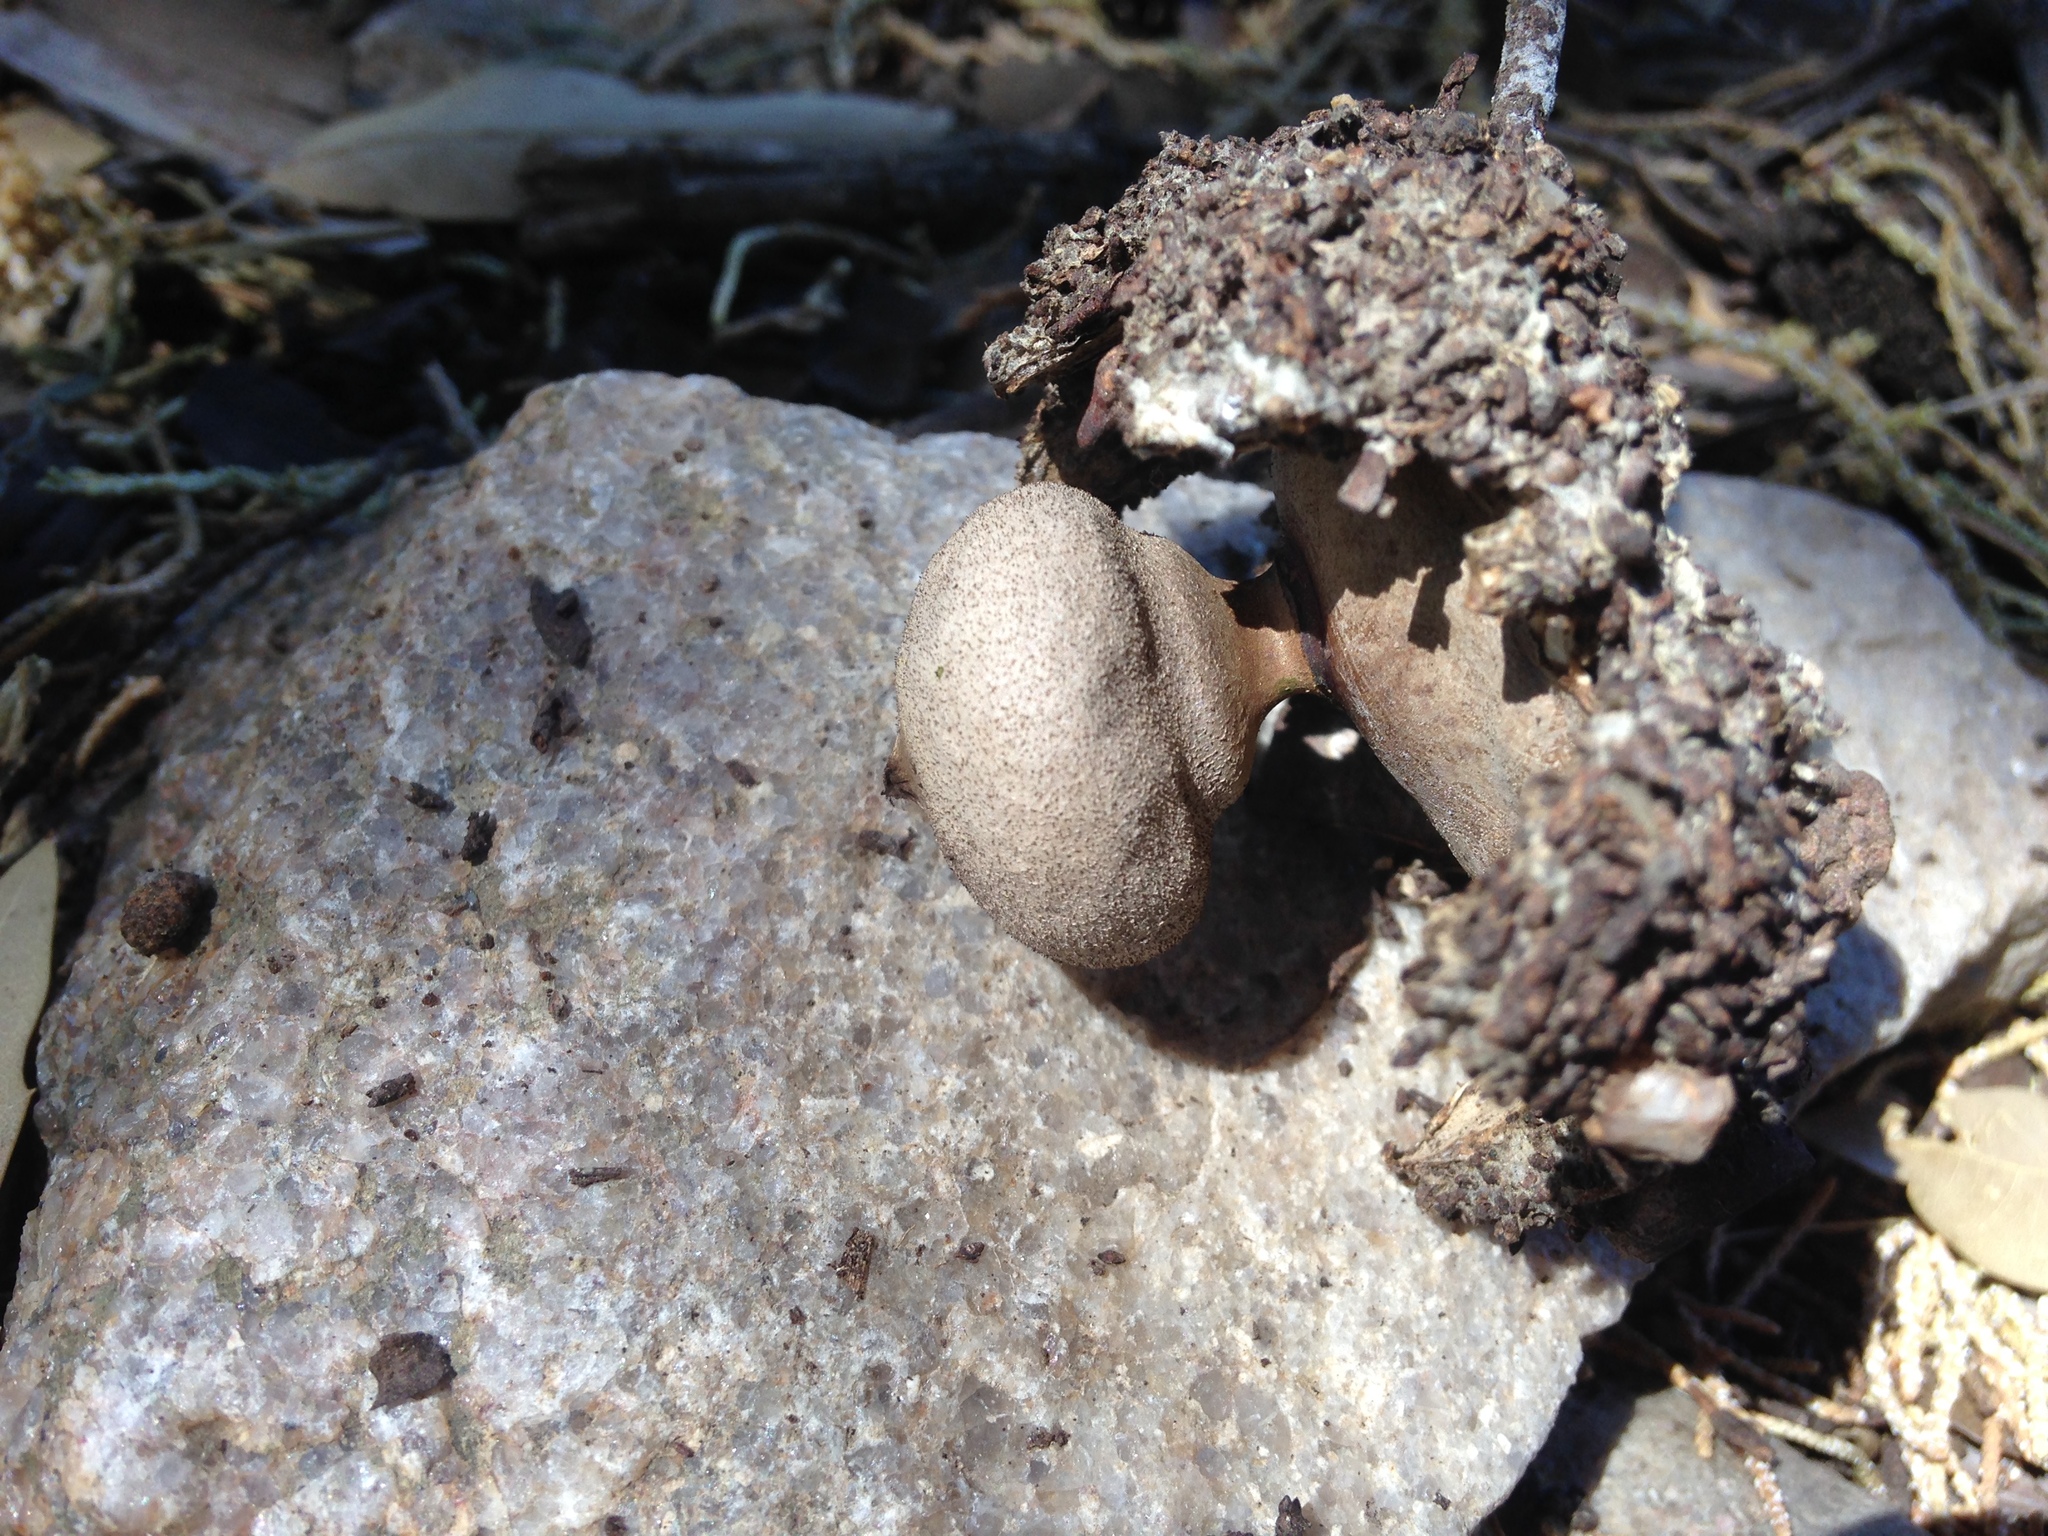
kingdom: Fungi
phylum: Basidiomycota
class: Agaricomycetes
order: Geastrales
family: Geastraceae
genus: Geastrum
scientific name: Geastrum hieronymi
